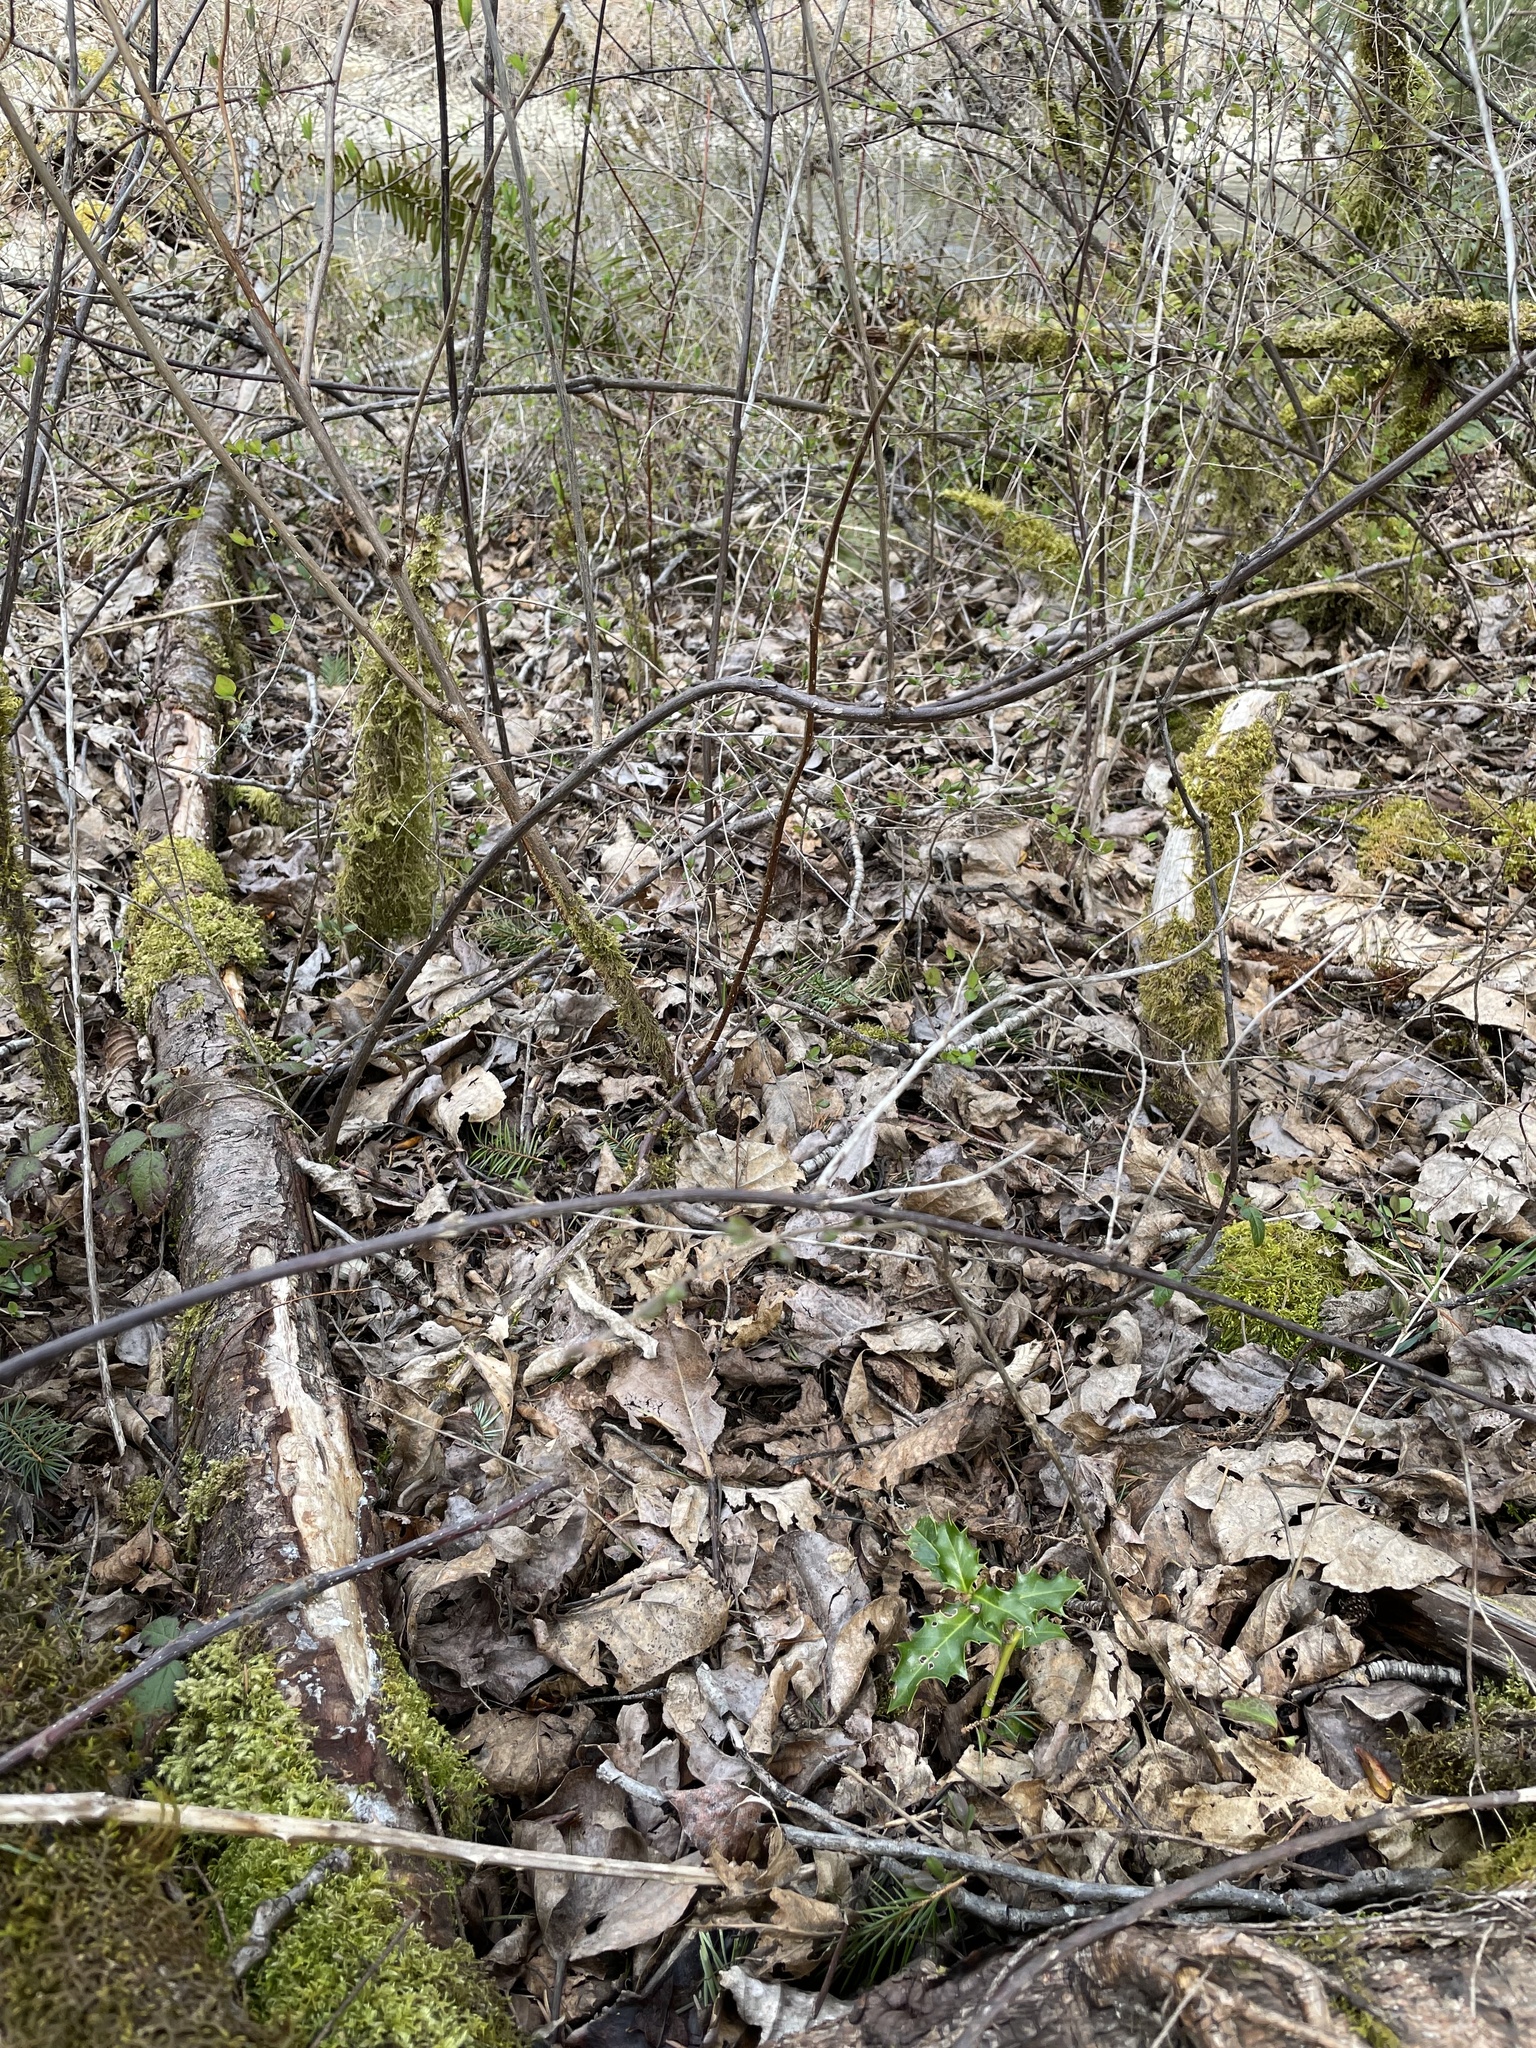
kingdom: Plantae
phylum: Tracheophyta
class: Magnoliopsida
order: Aquifoliales
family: Aquifoliaceae
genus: Ilex
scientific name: Ilex aquifolium
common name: English holly
